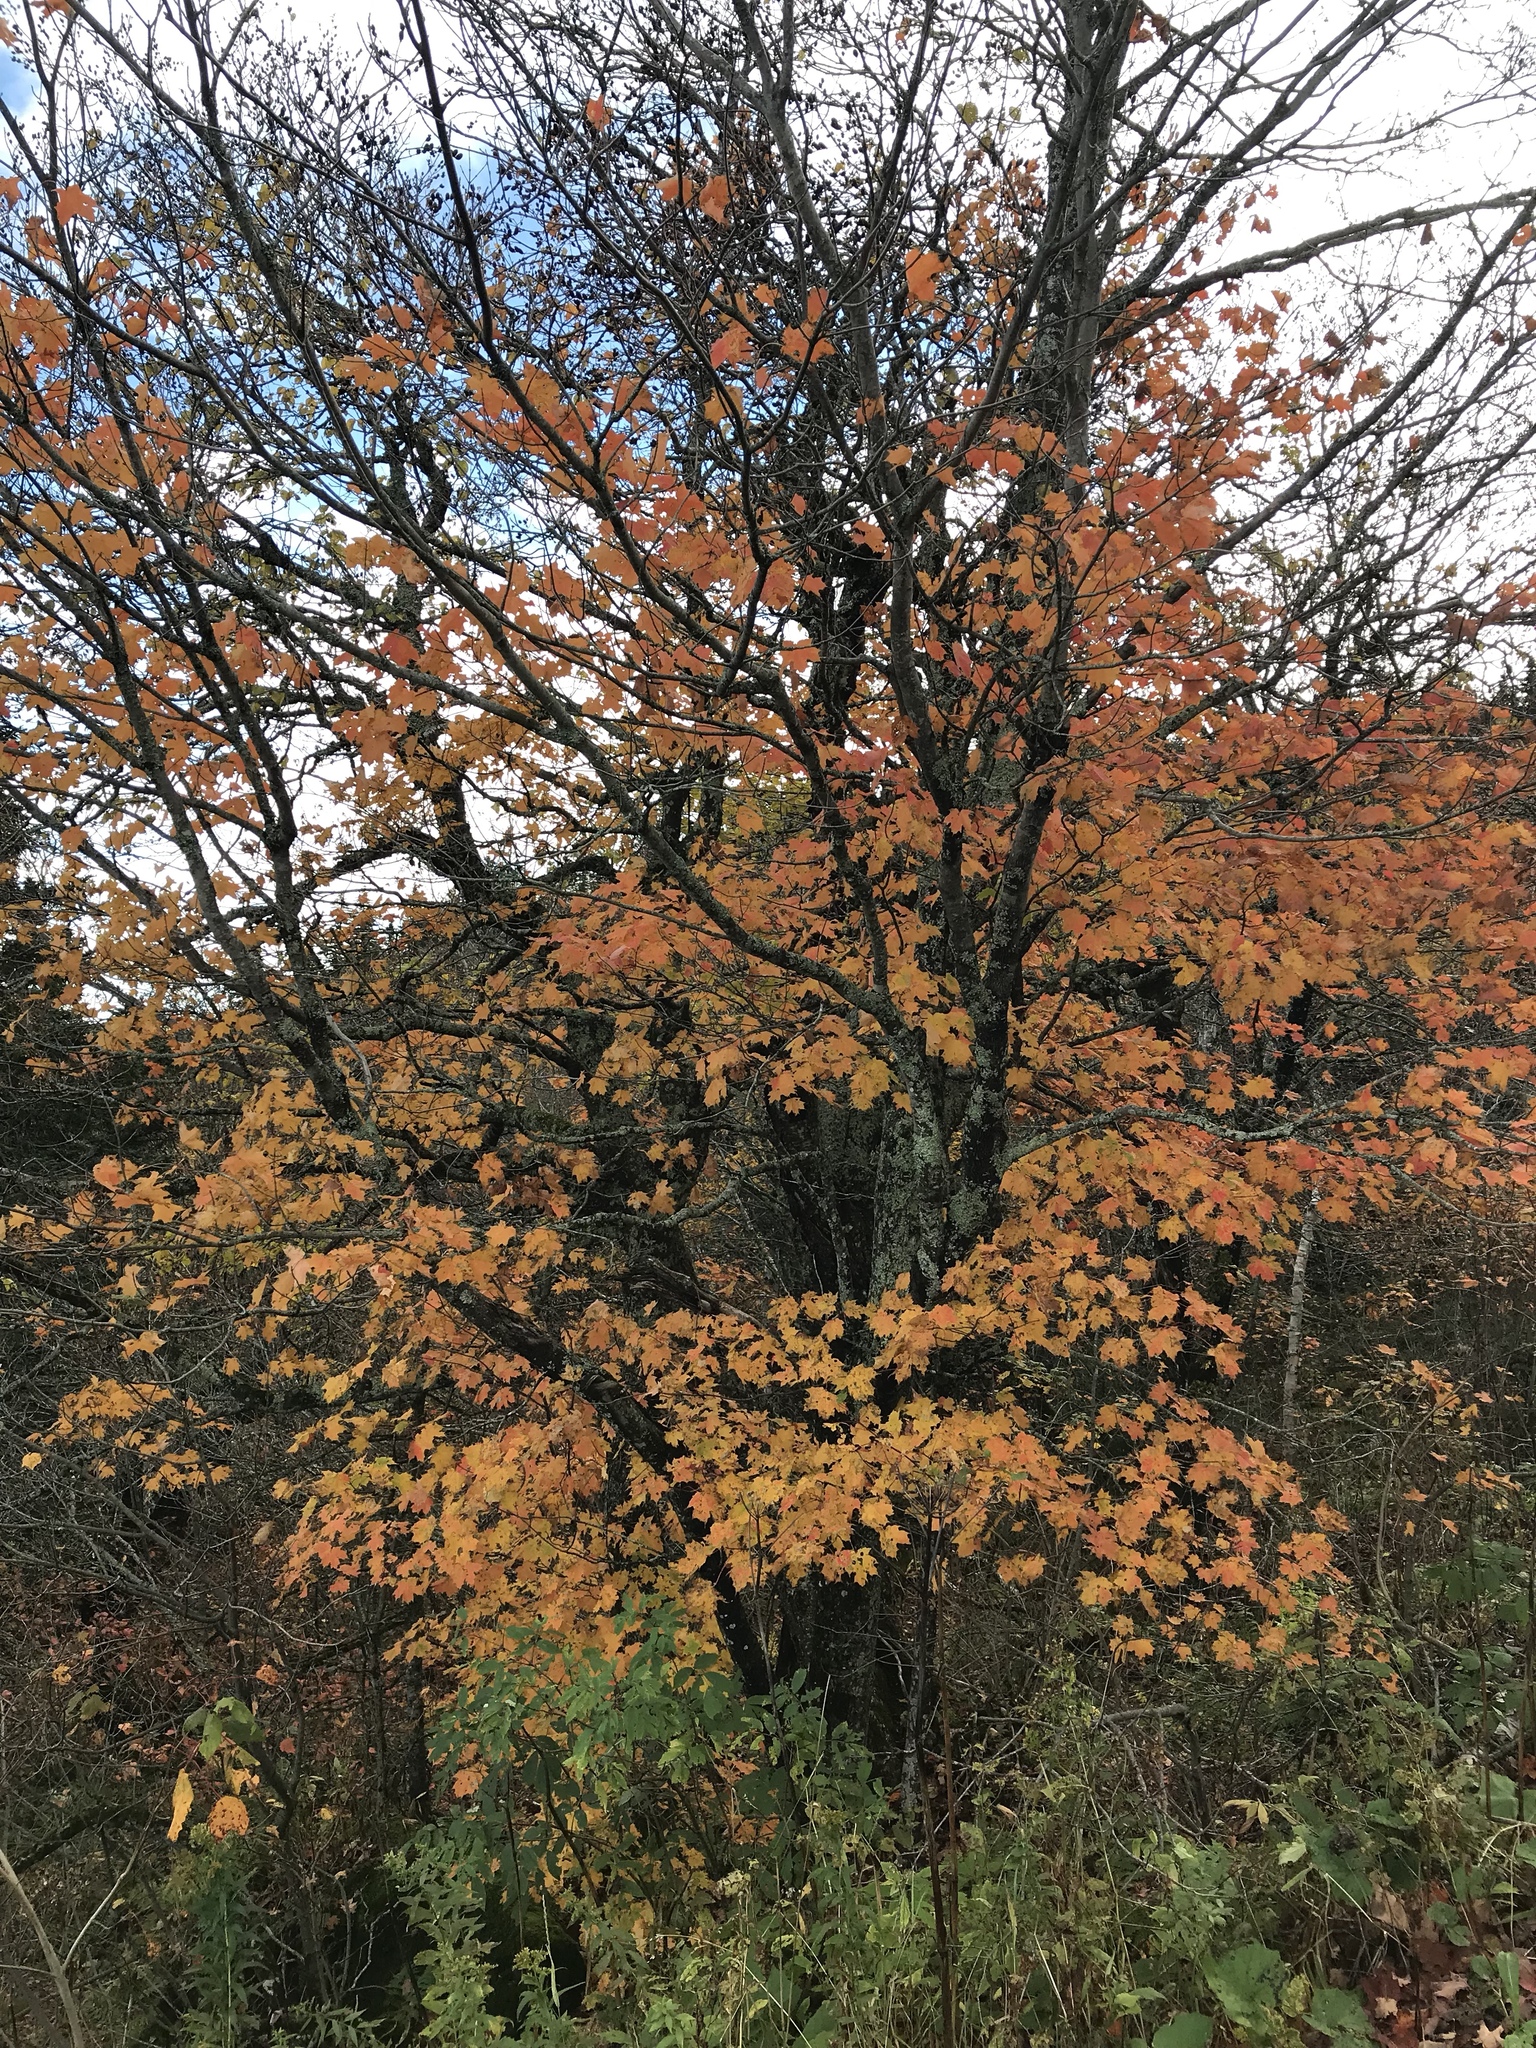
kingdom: Plantae
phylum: Tracheophyta
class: Magnoliopsida
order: Sapindales
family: Sapindaceae
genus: Acer
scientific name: Acer saccharum
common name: Sugar maple
